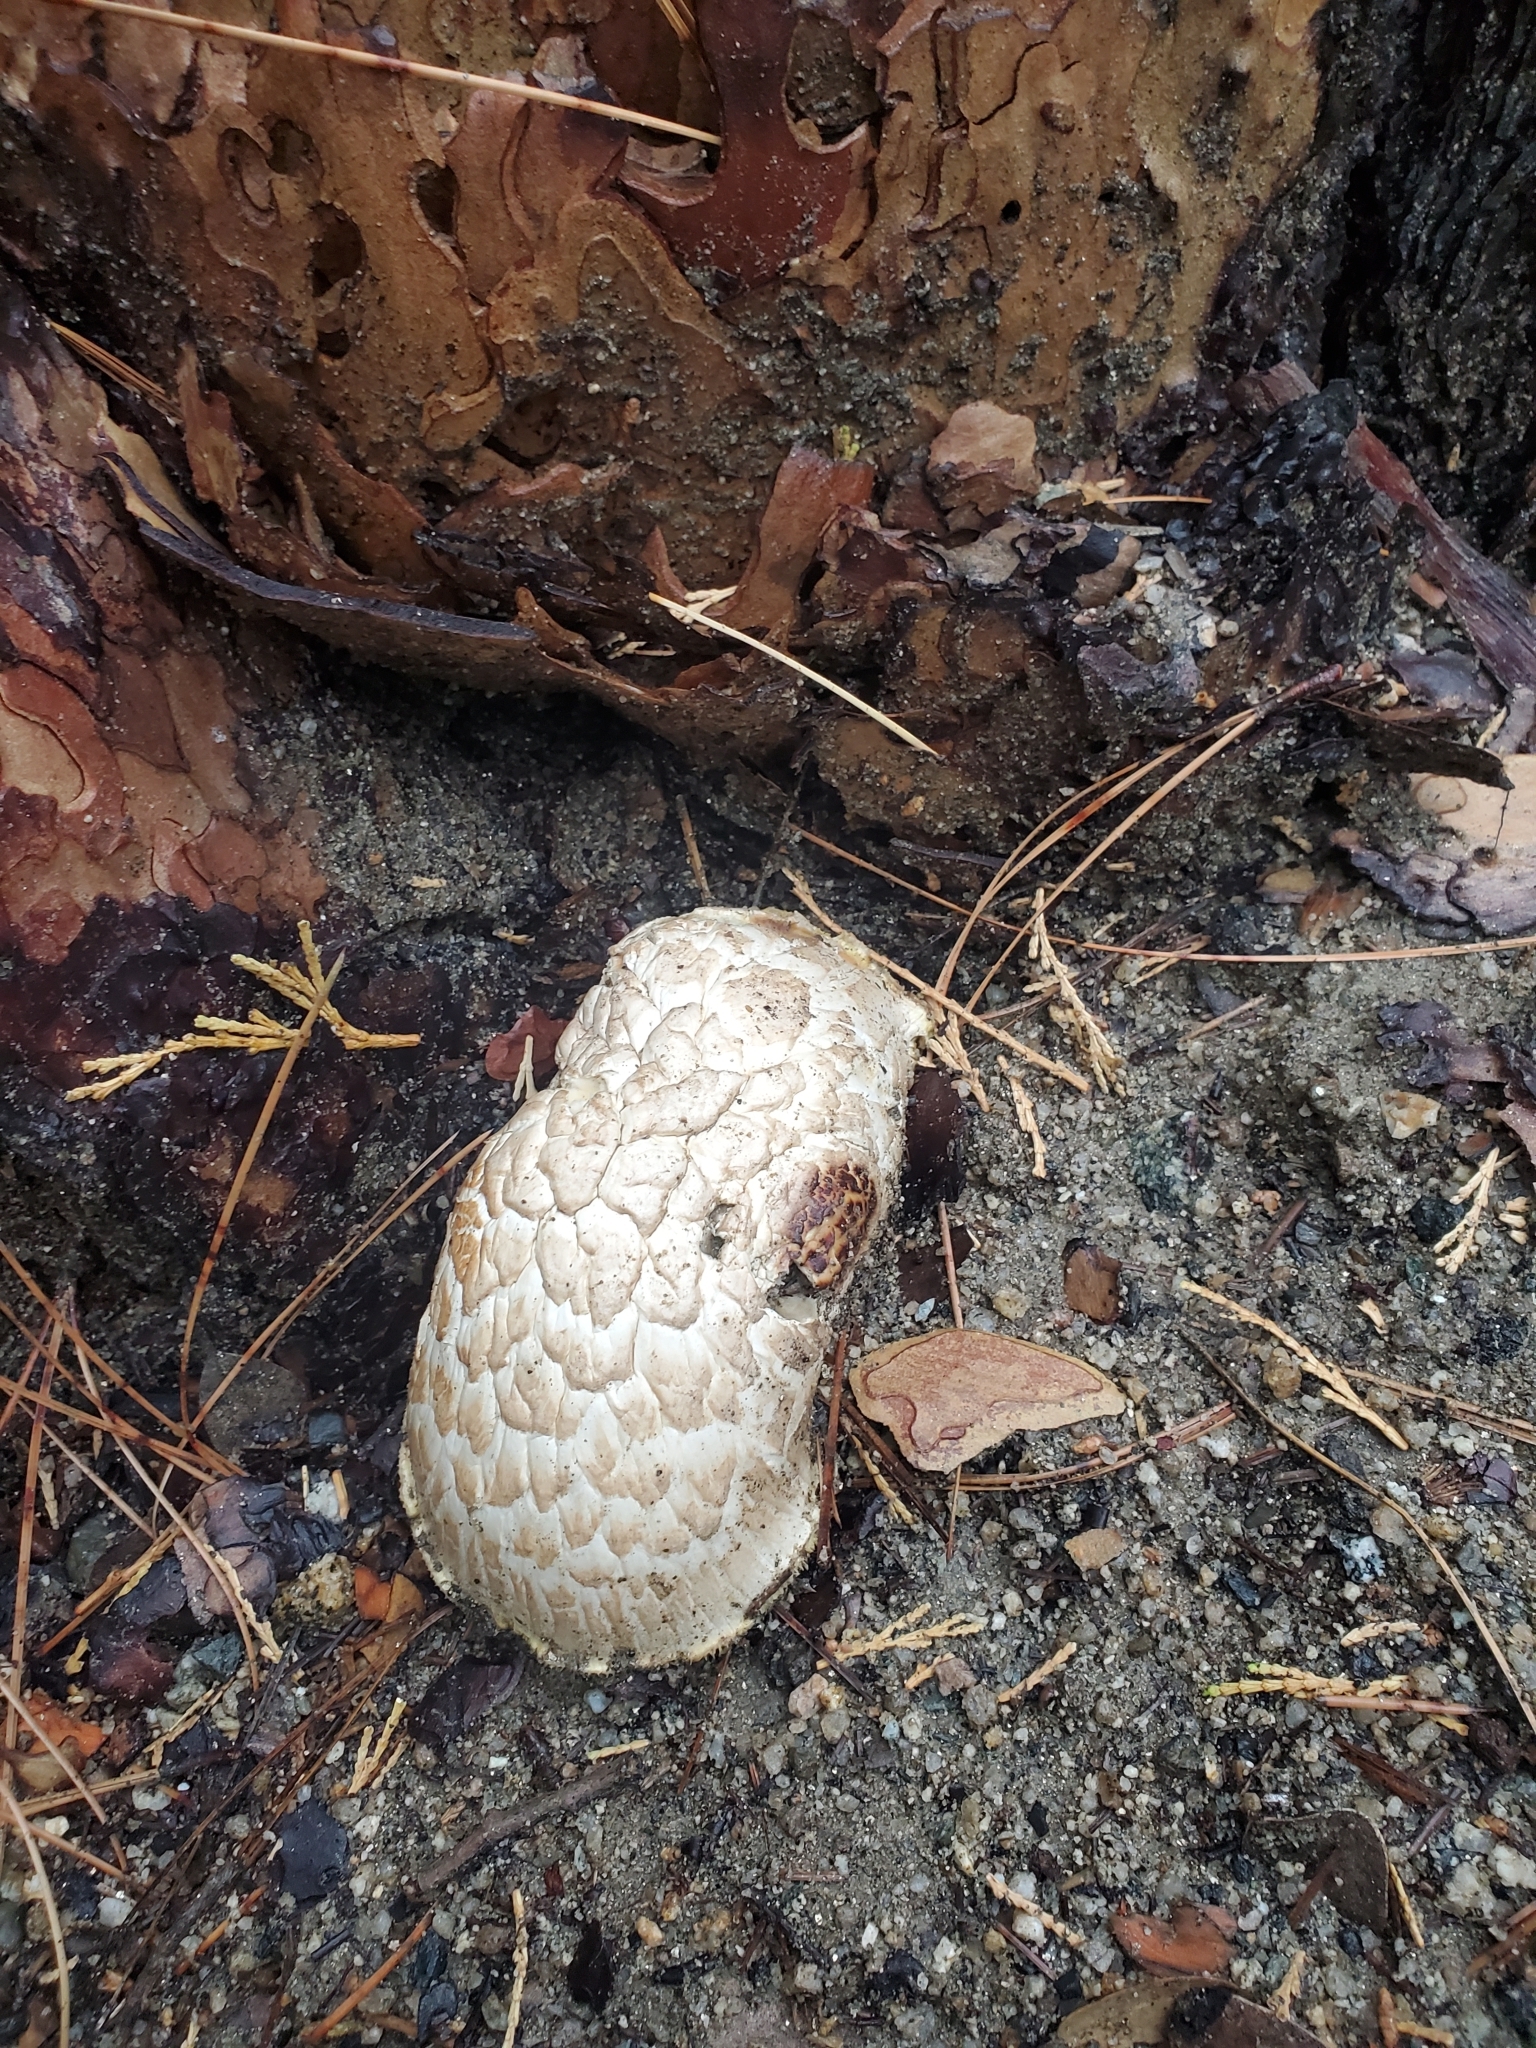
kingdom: Fungi
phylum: Basidiomycota
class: Agaricomycetes
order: Gloeophyllales
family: Gloeophyllaceae
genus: Neolentinus
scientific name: Neolentinus ponderosus
